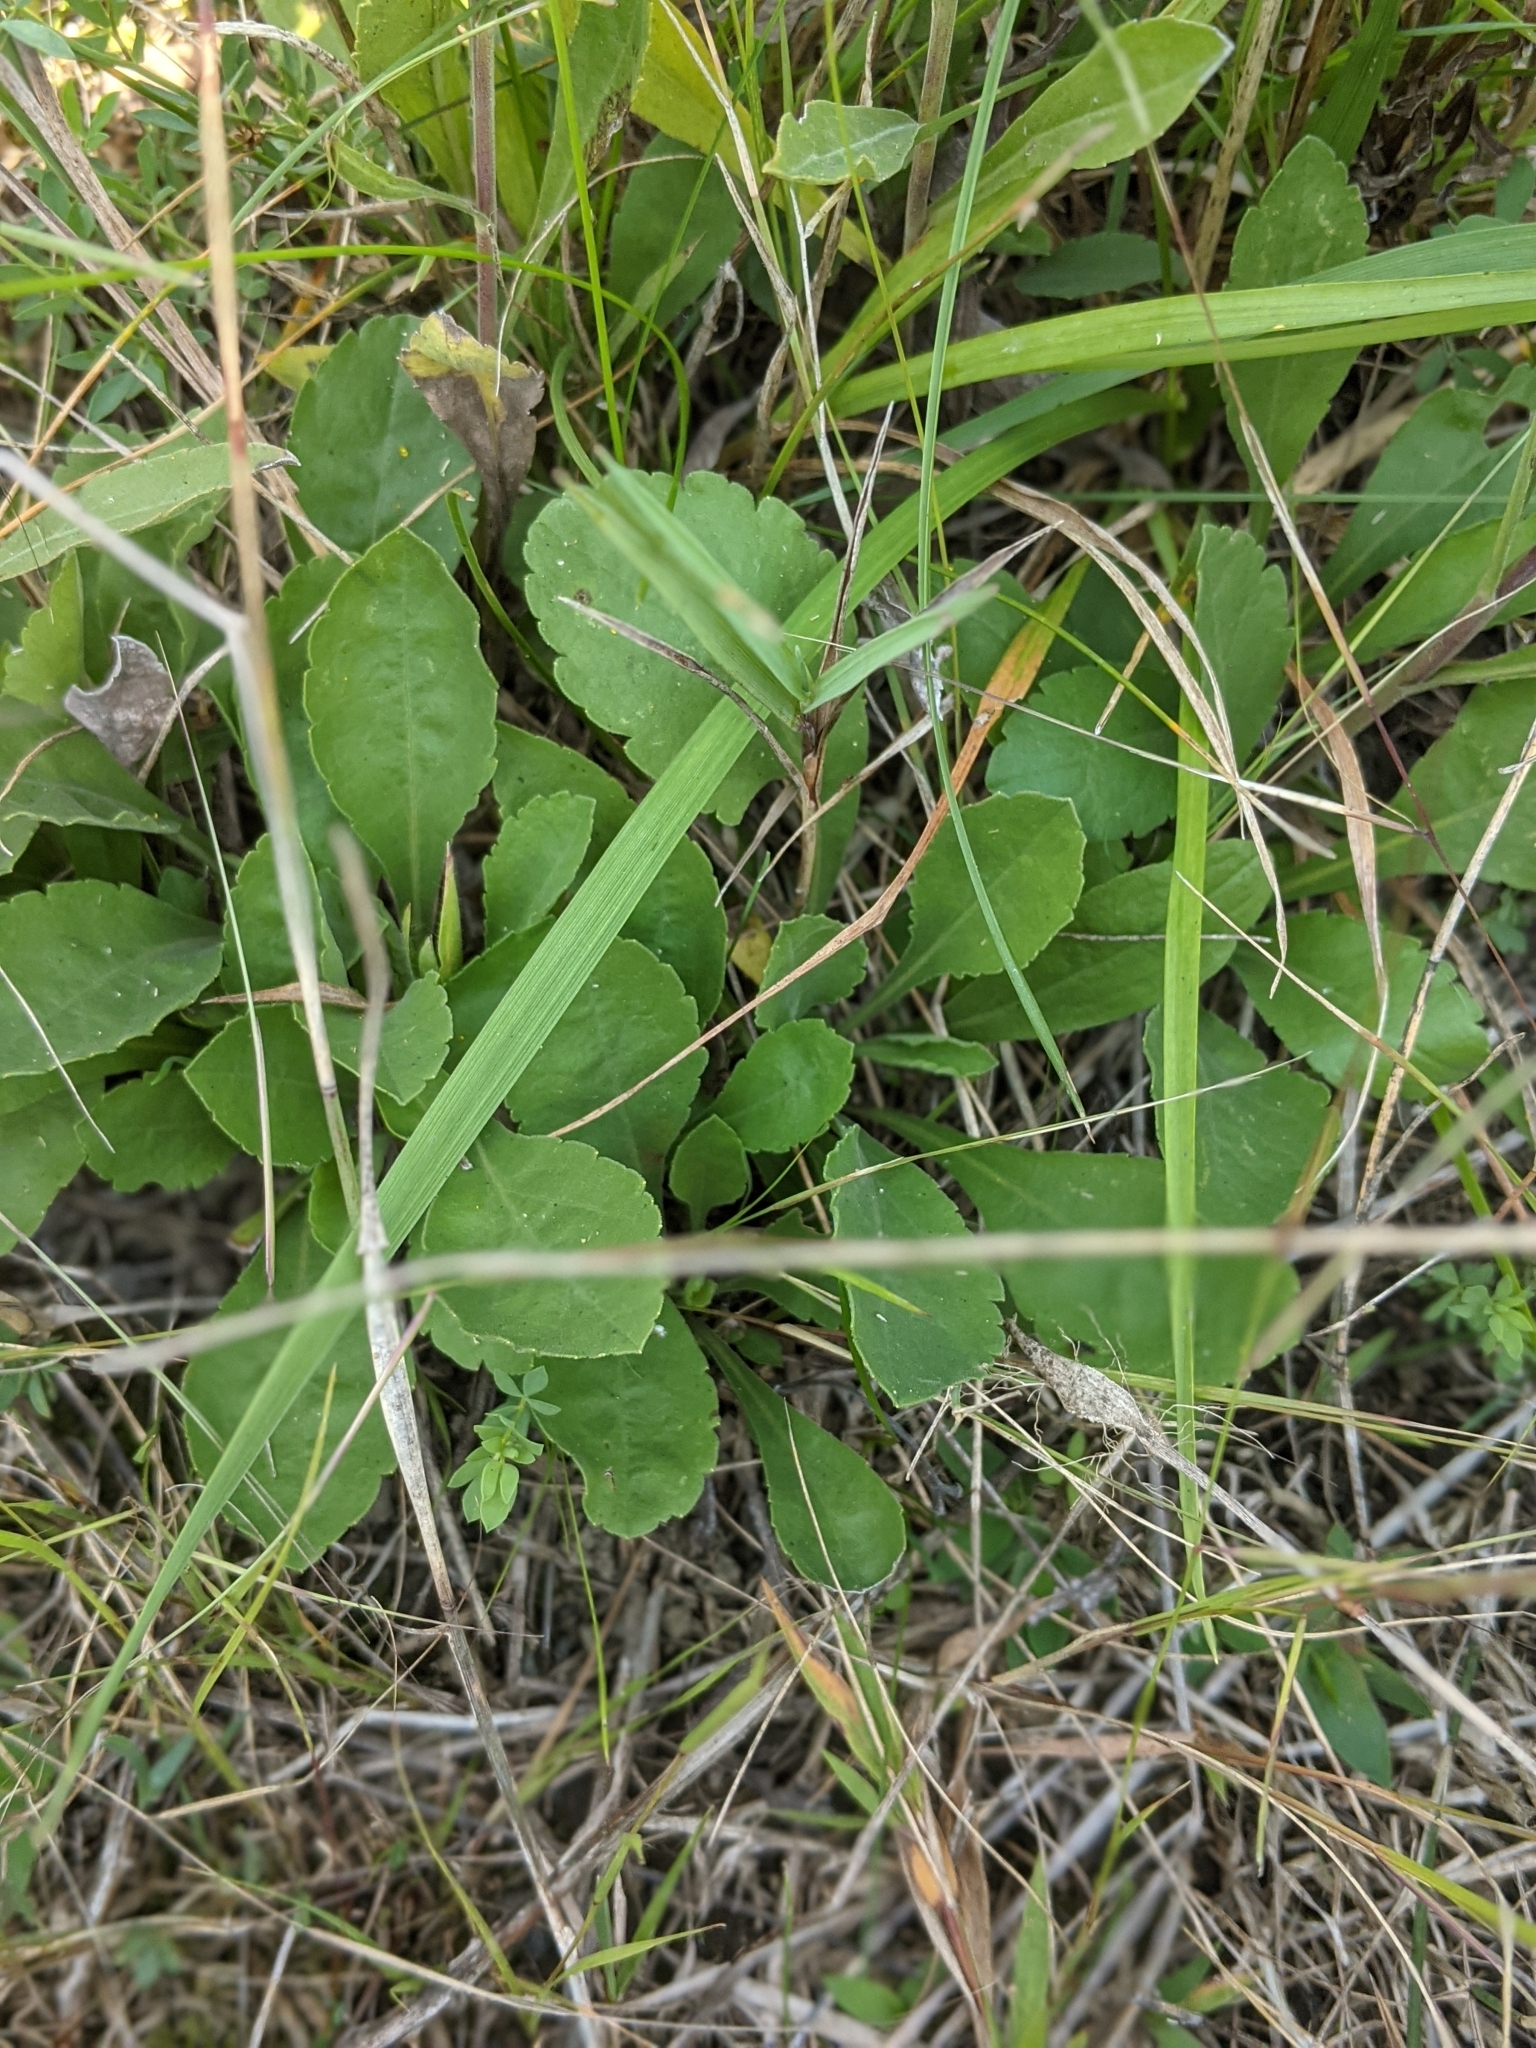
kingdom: Plantae
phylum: Tracheophyta
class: Magnoliopsida
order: Asterales
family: Asteraceae
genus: Solidago
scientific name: Solidago nemoralis
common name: Grey goldenrod
